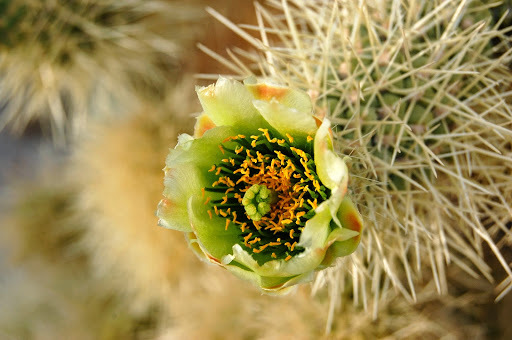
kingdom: Plantae
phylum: Tracheophyta
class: Magnoliopsida
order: Caryophyllales
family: Cactaceae
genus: Cylindropuntia
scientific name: Cylindropuntia fosbergii
